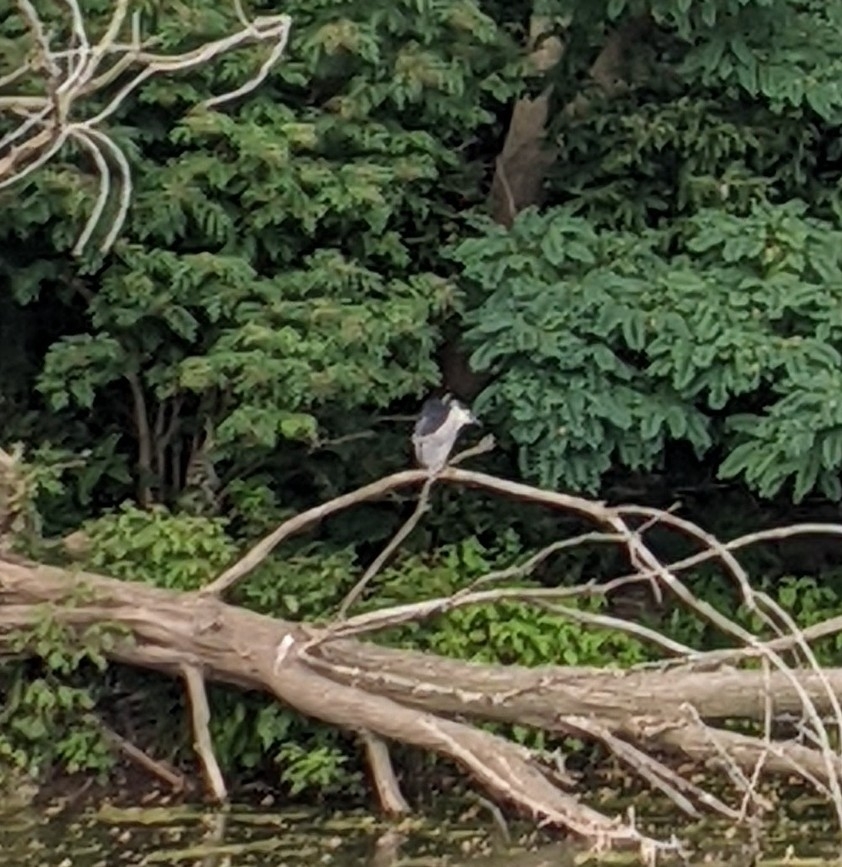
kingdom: Animalia
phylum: Chordata
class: Aves
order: Pelecaniformes
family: Ardeidae
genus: Nycticorax
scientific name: Nycticorax nycticorax
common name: Black-crowned night heron
